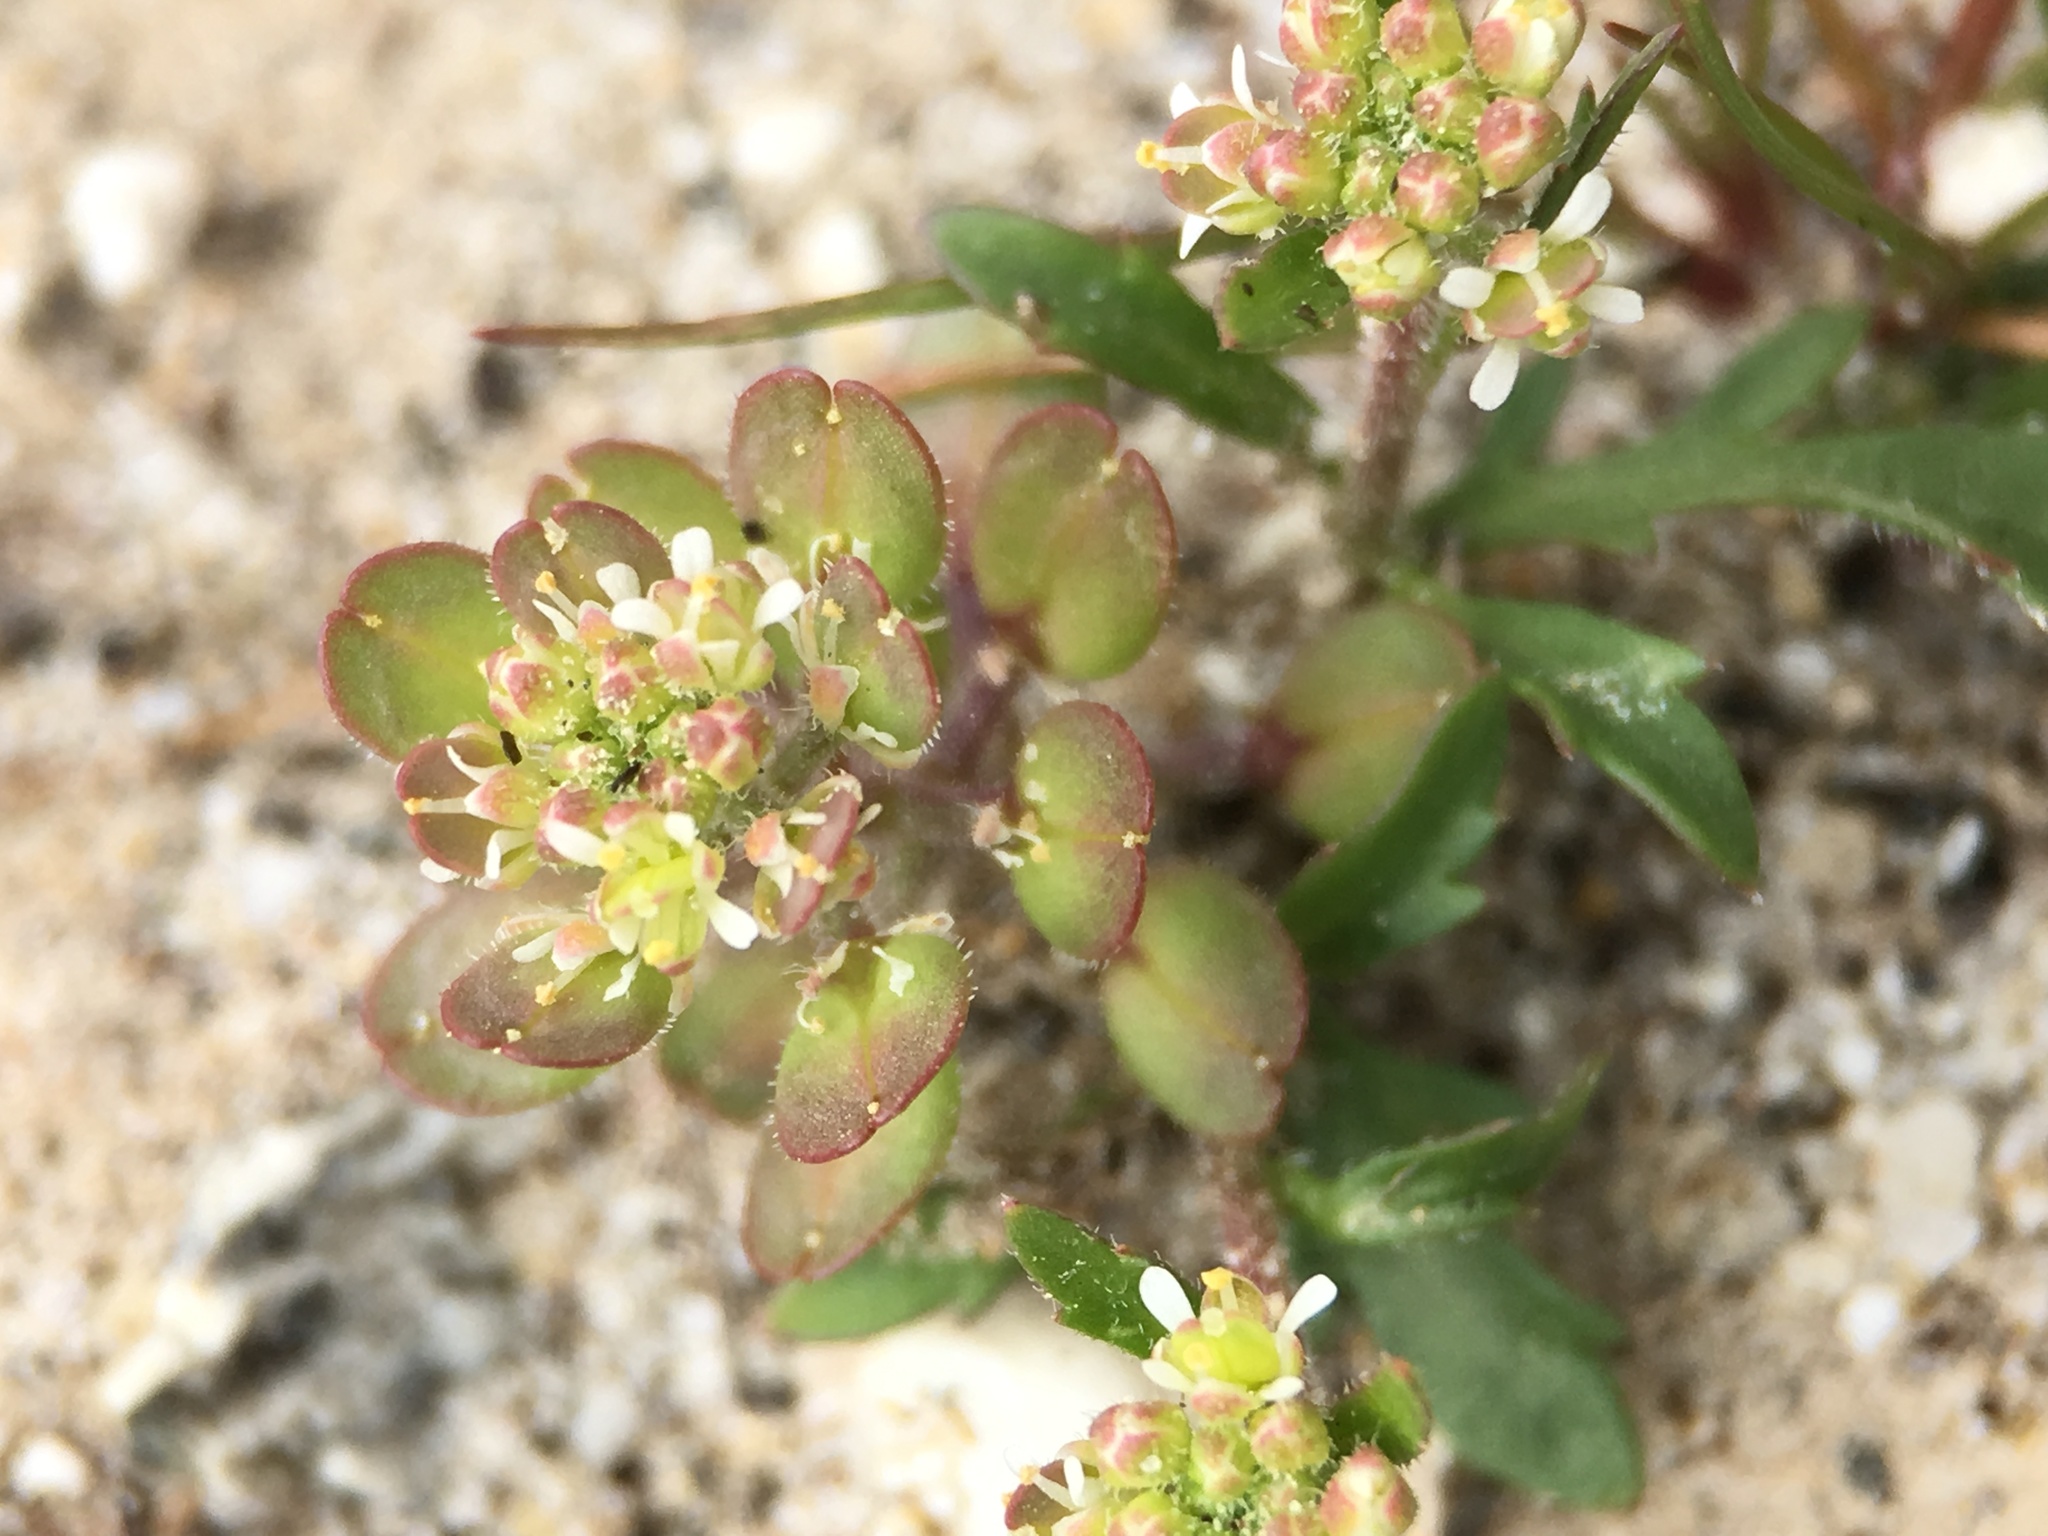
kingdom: Plantae
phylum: Tracheophyta
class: Magnoliopsida
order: Brassicales
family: Brassicaceae
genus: Lepidium
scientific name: Lepidium lasiocarpum
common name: Hairy-pod pepperwort
